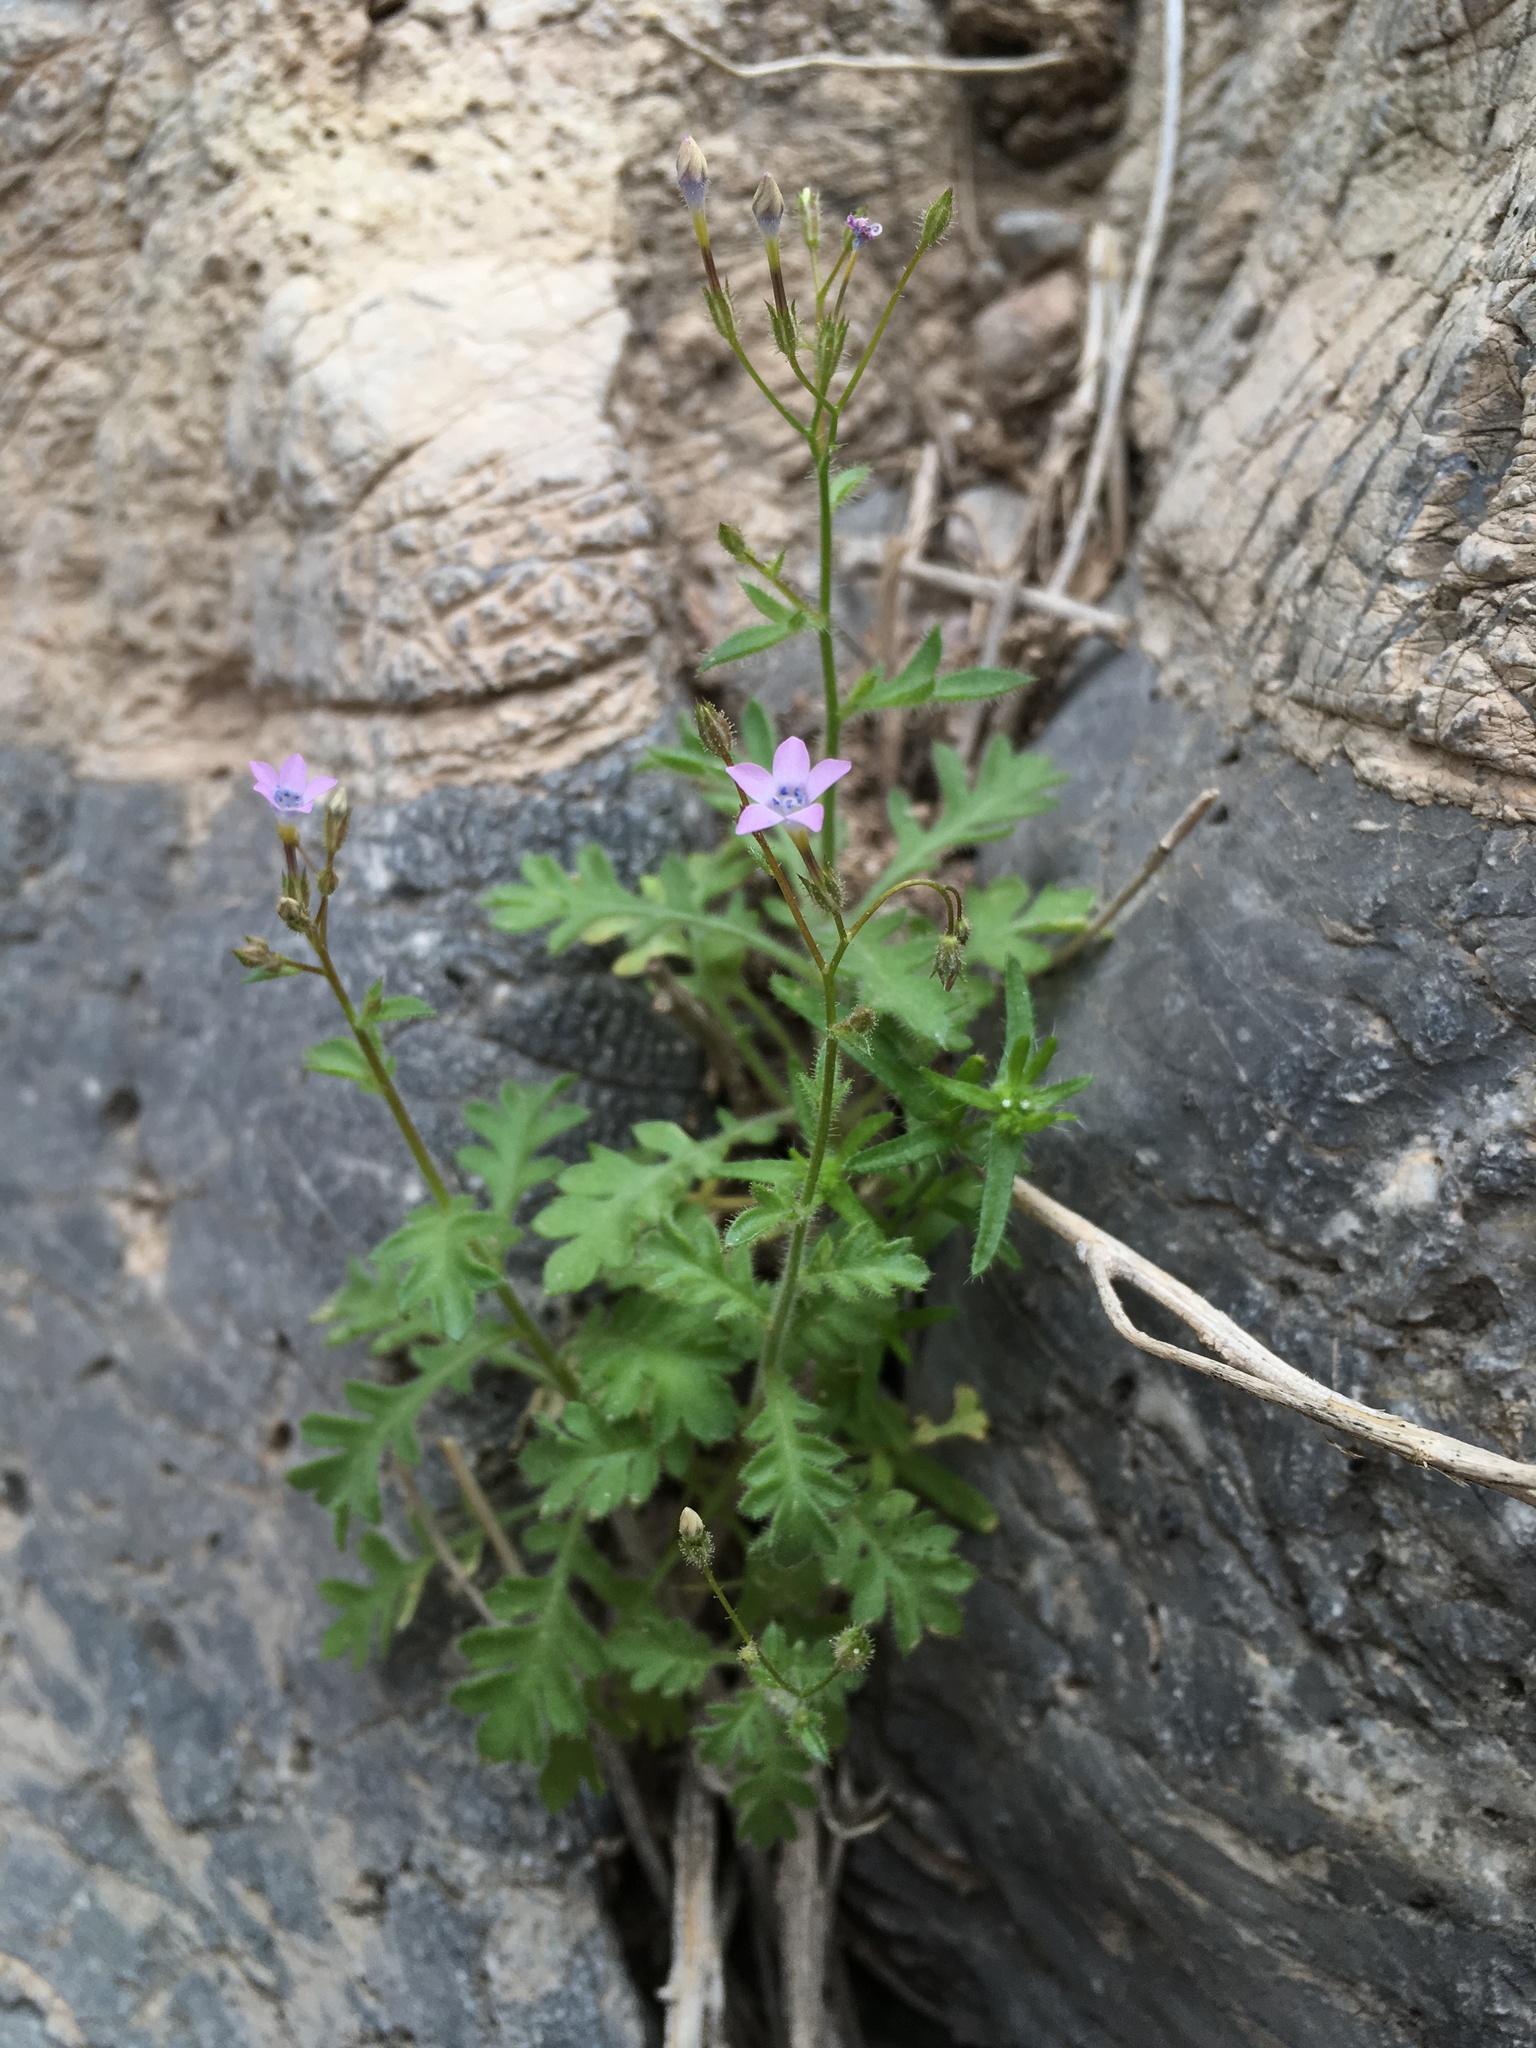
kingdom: Plantae
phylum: Tracheophyta
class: Magnoliopsida
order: Ericales
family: Polemoniaceae
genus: Gilia
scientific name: Gilia scopulorum
